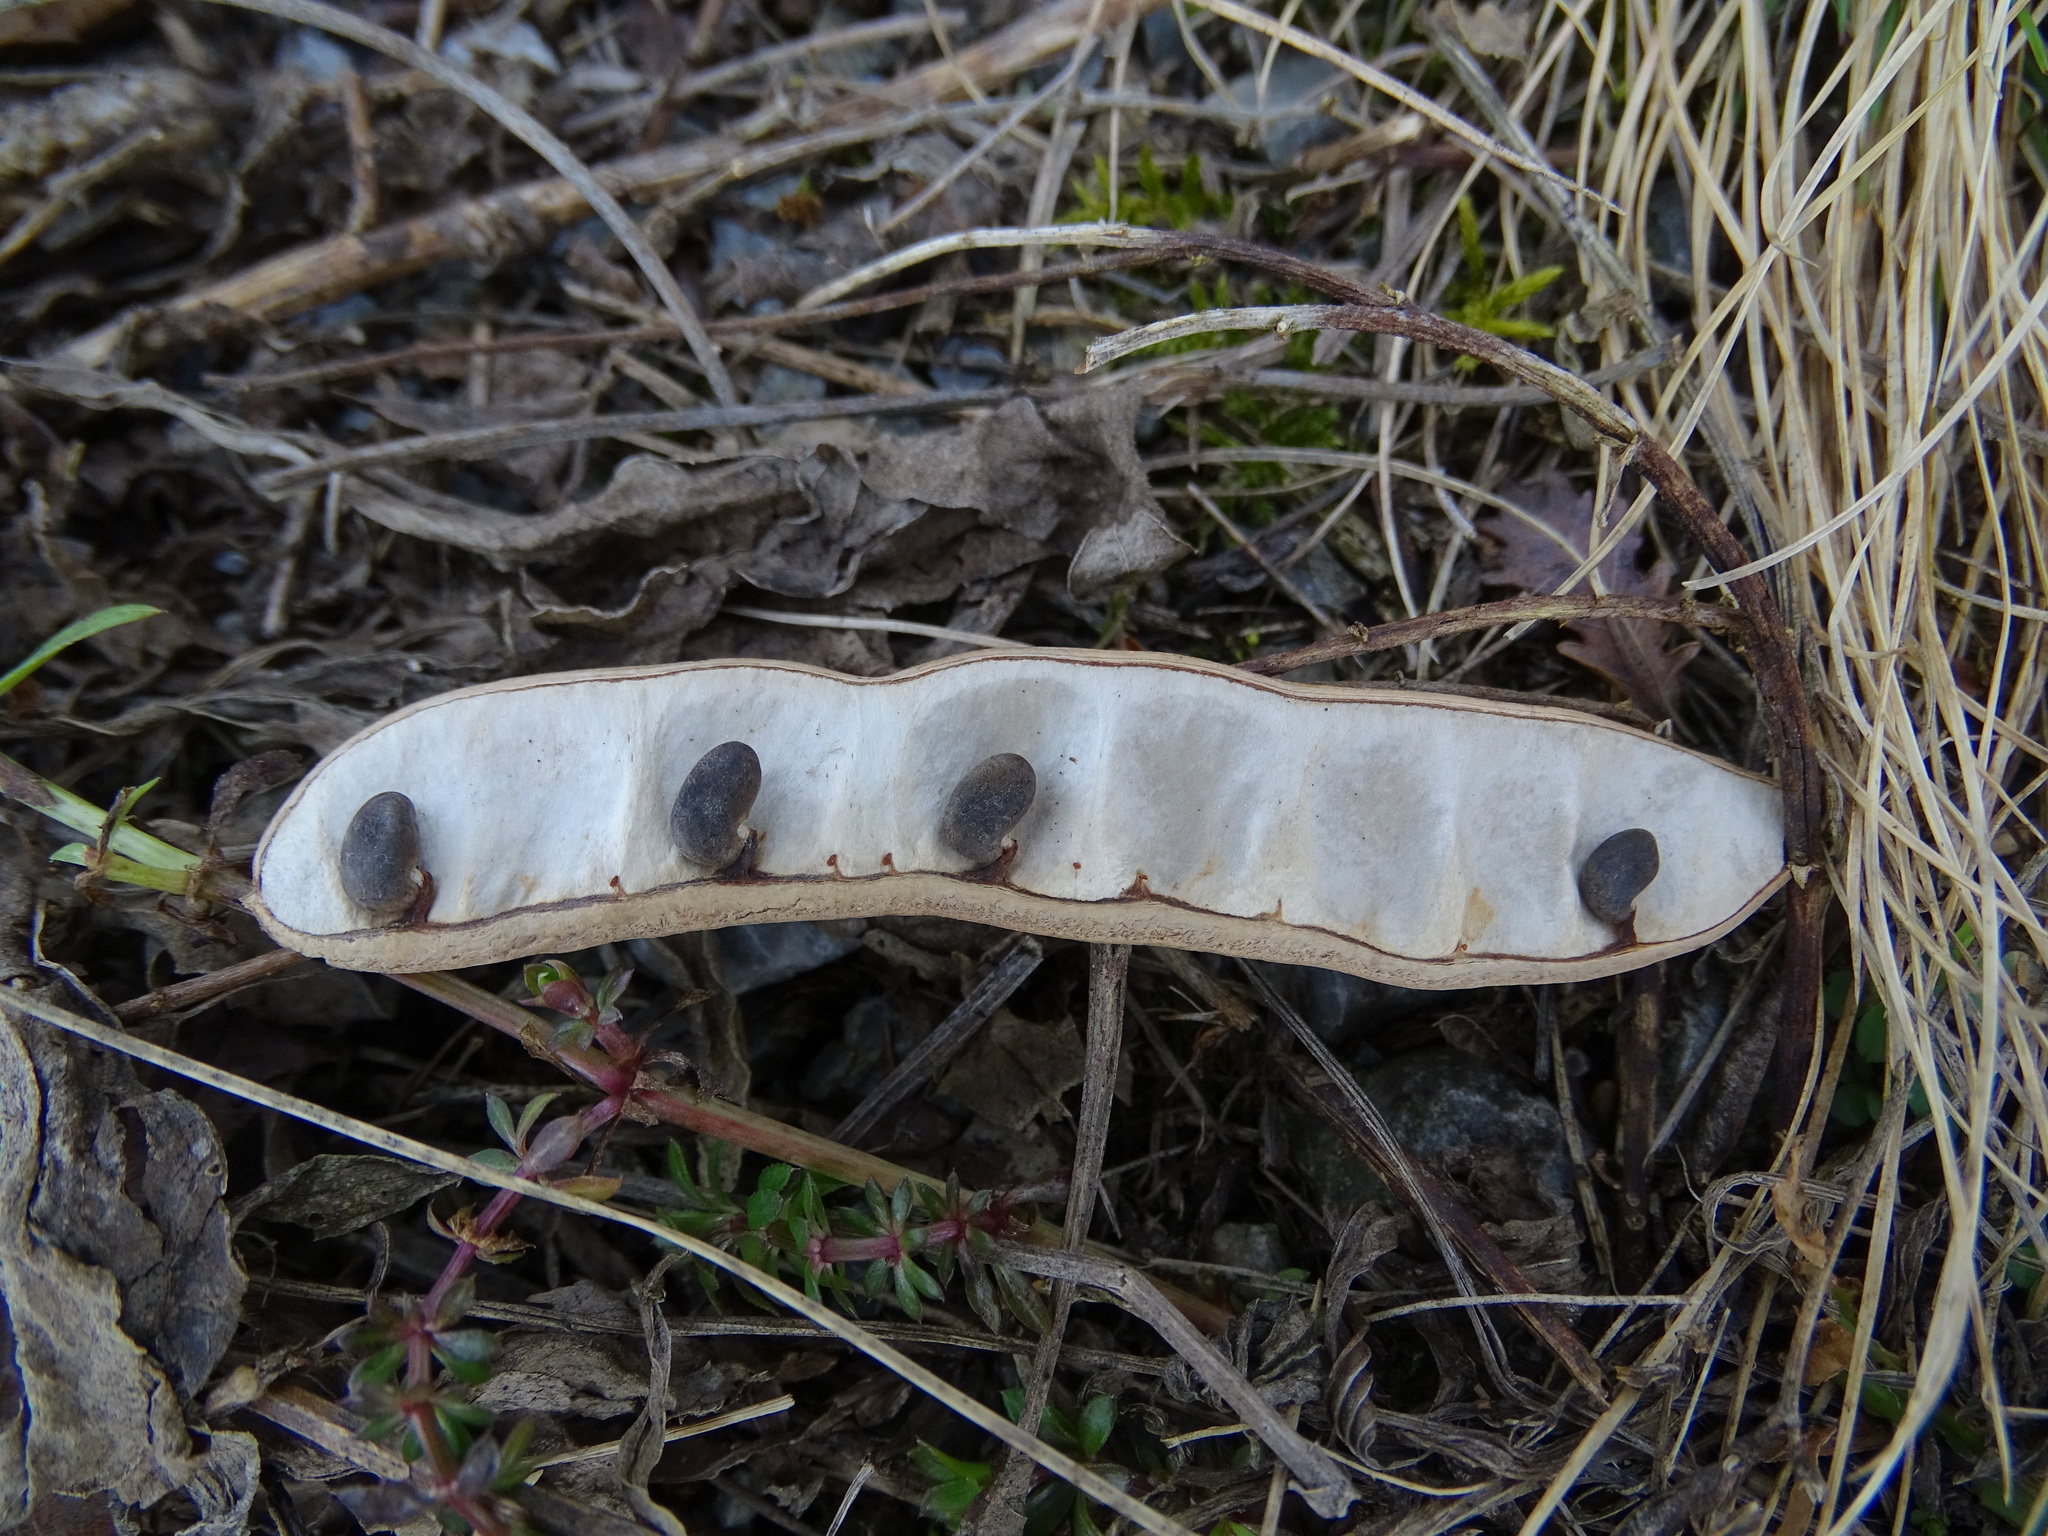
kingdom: Plantae
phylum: Tracheophyta
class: Magnoliopsida
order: Fabales
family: Fabaceae
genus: Robinia
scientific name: Robinia pseudoacacia
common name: Black locust
